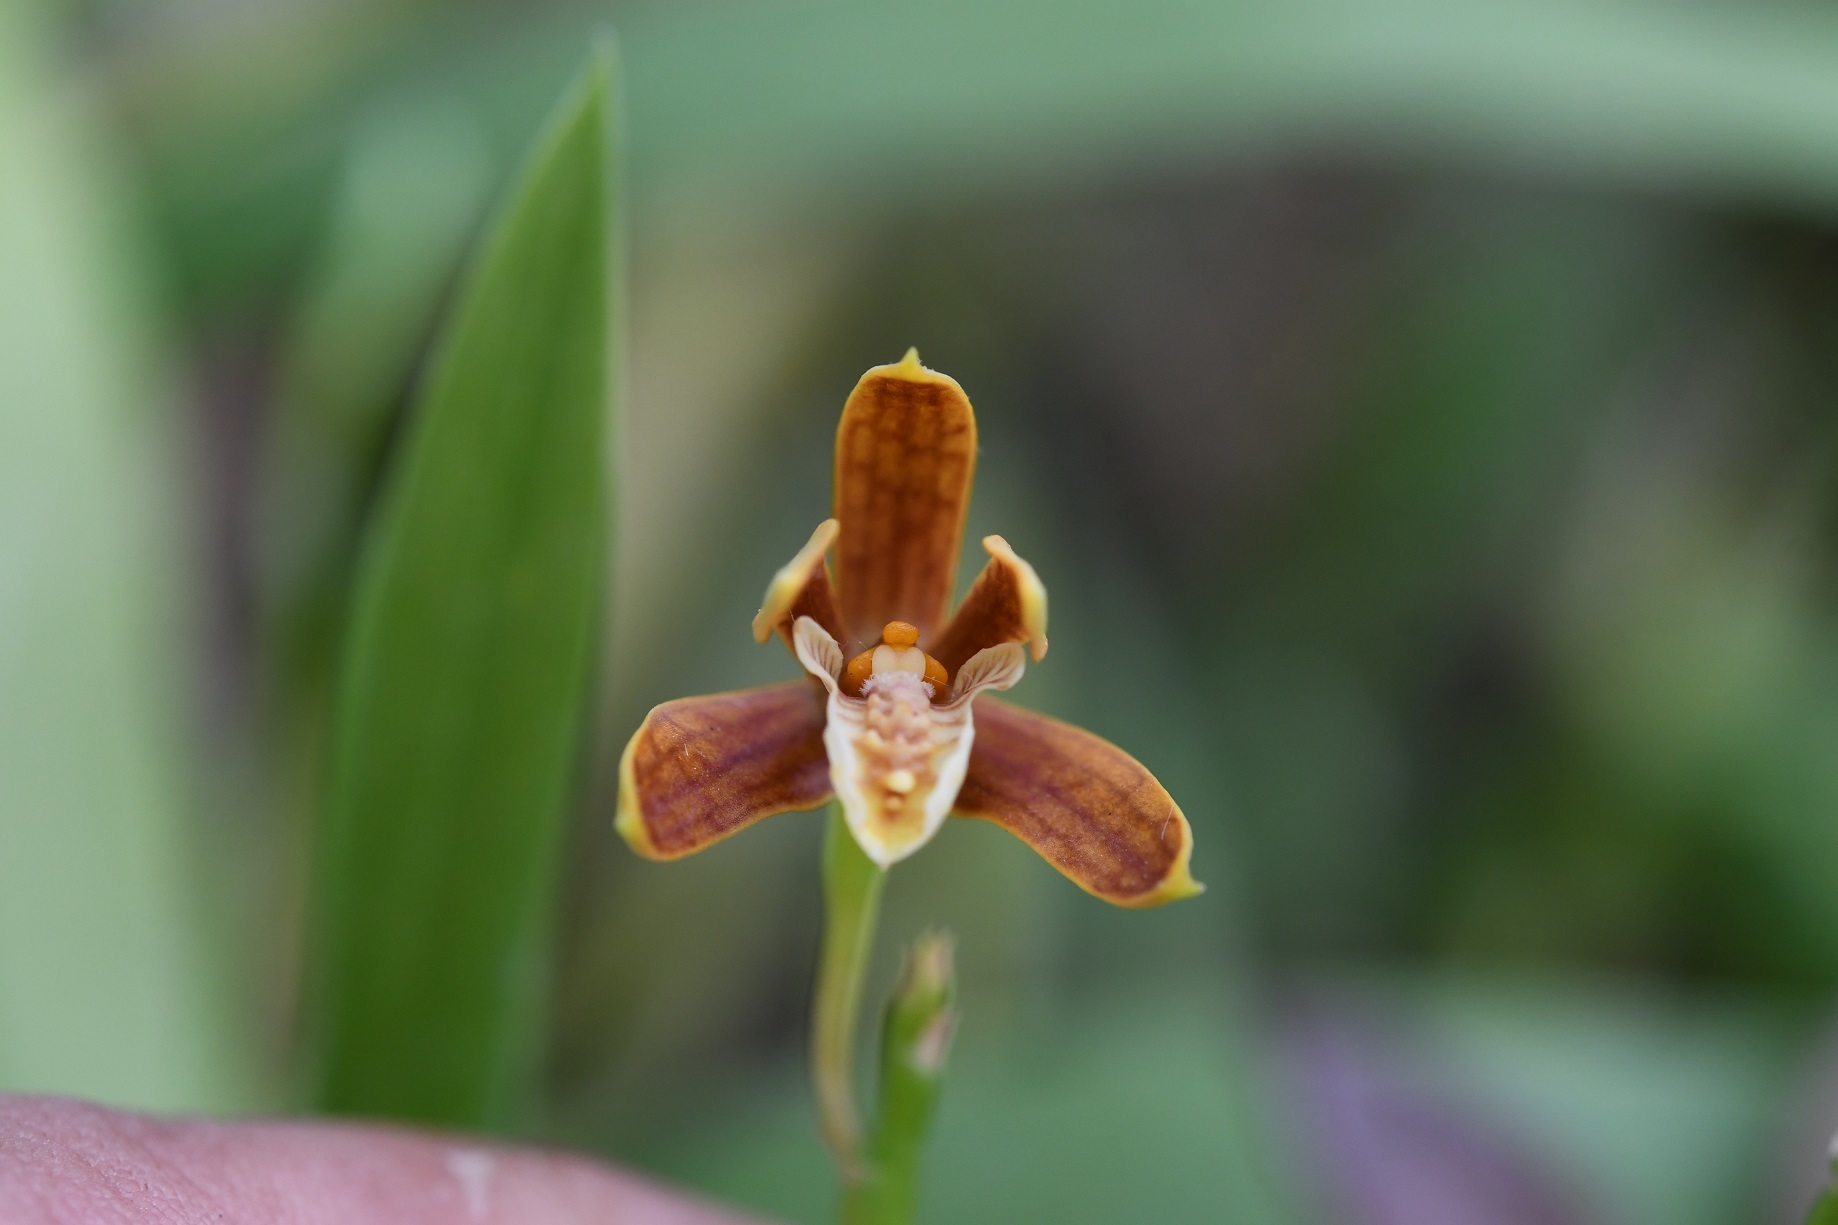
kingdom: Plantae
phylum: Tracheophyta
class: Liliopsida
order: Asparagales
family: Orchidaceae
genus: Prosthechea
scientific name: Prosthechea livida
